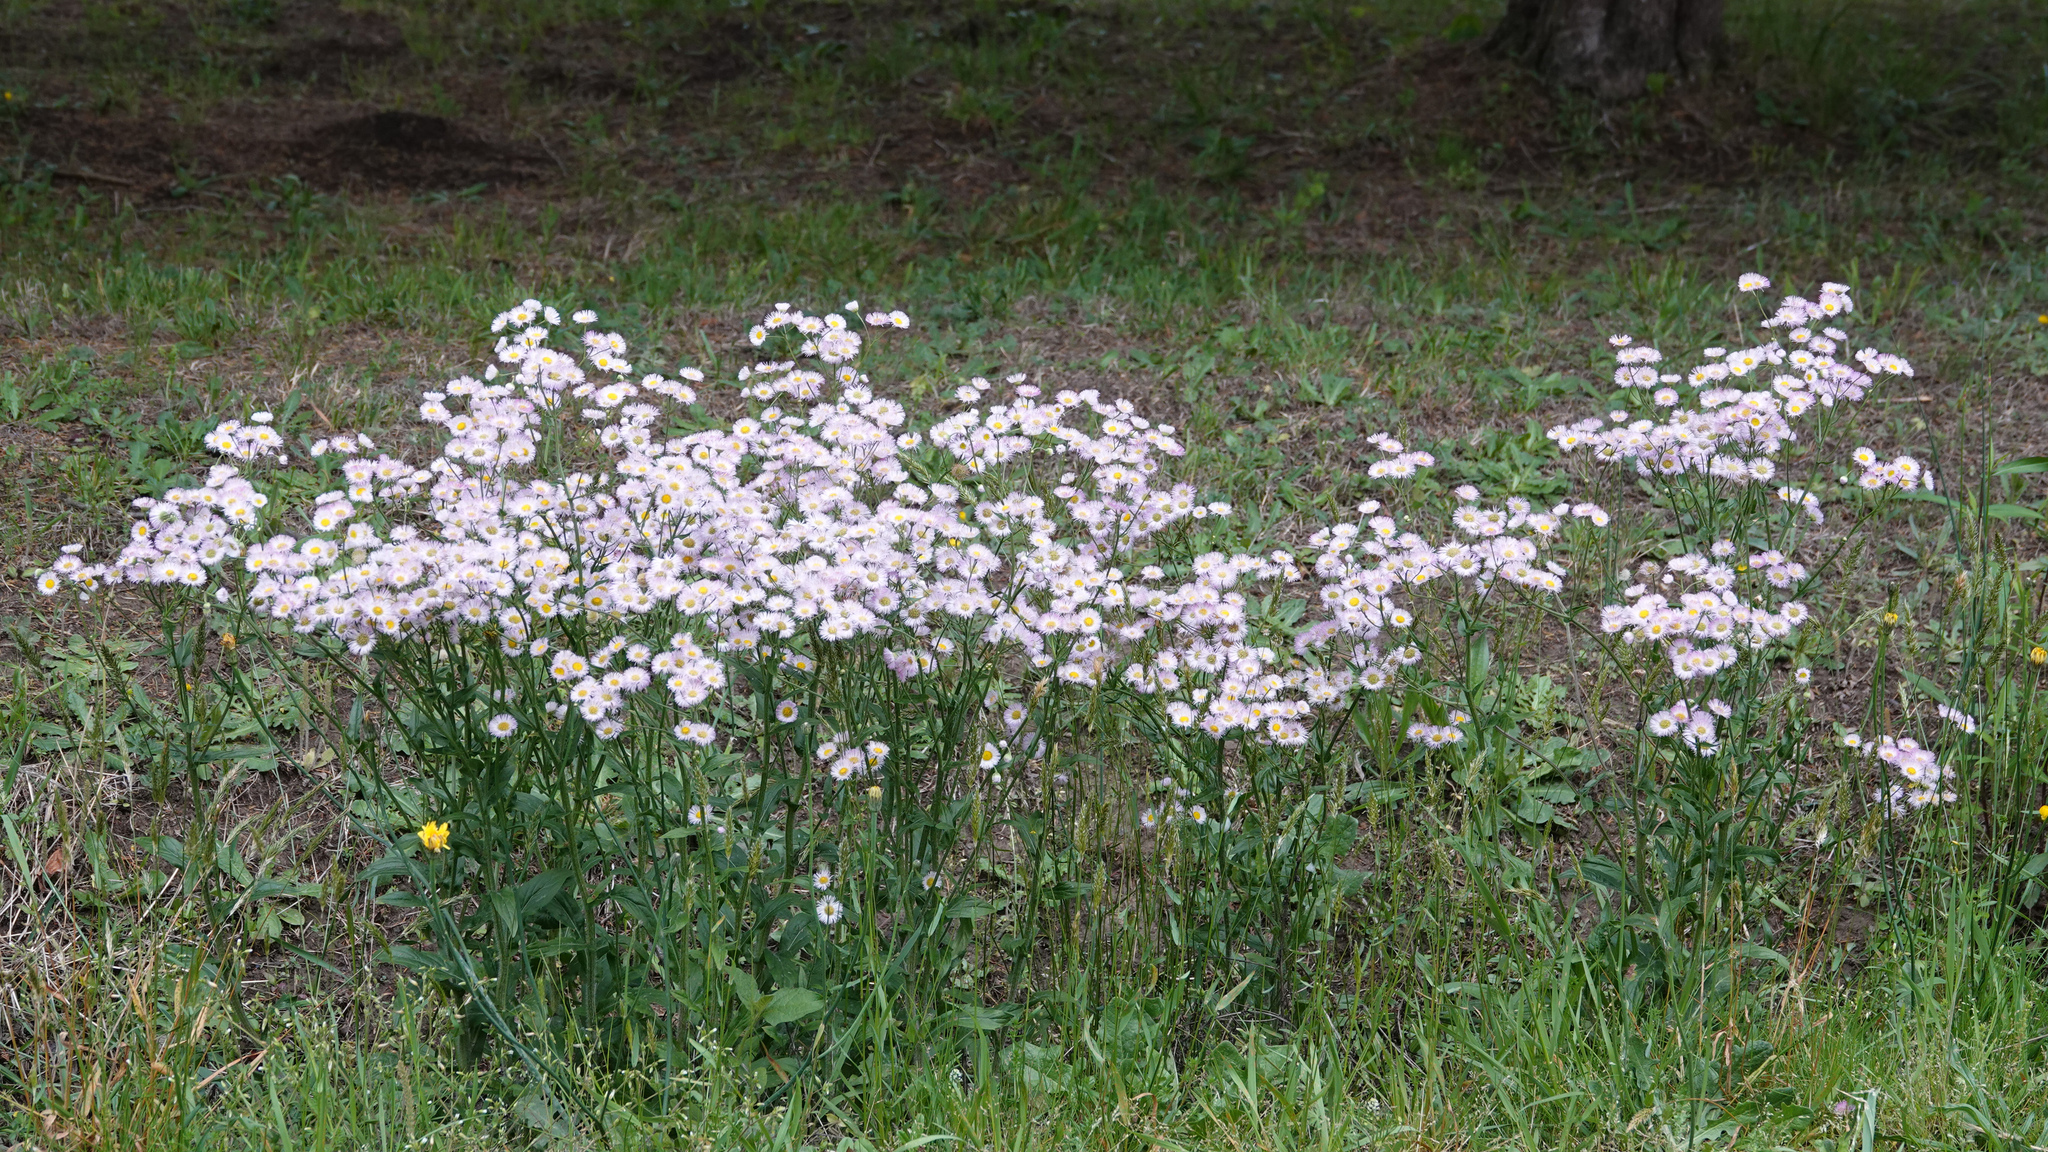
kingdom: Plantae
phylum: Tracheophyta
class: Magnoliopsida
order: Asterales
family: Asteraceae
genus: Erigeron
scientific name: Erigeron philadelphicus
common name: Robin's-plantain
